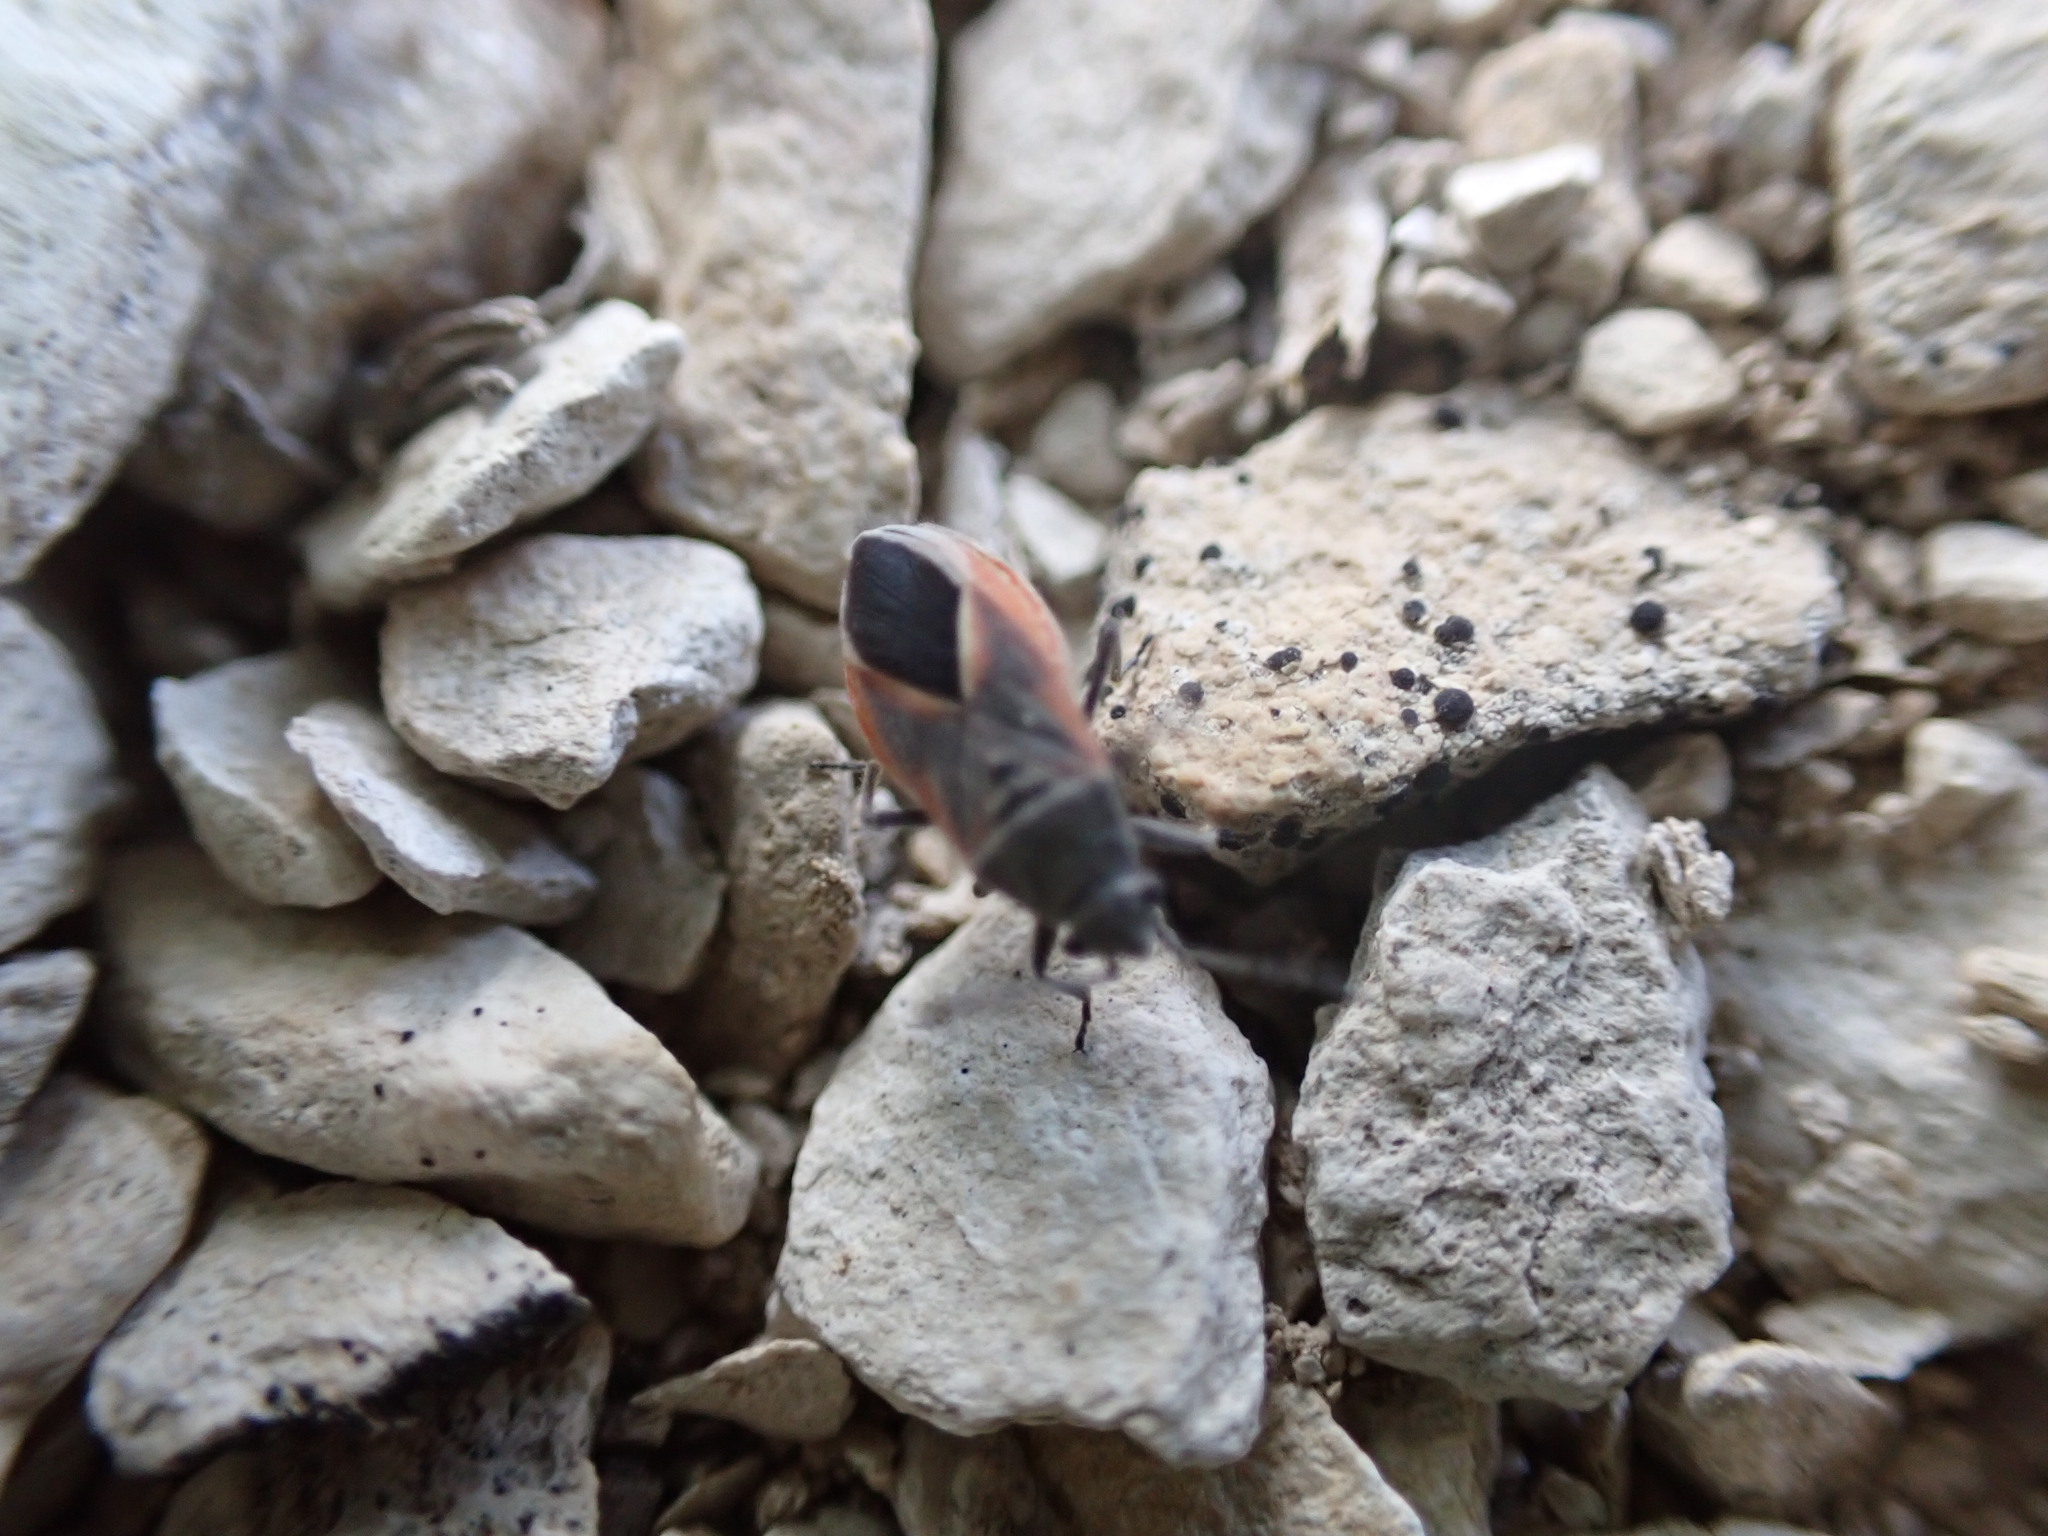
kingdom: Animalia
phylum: Arthropoda
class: Insecta
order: Hemiptera
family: Lygaeidae
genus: Melanopleurus
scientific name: Melanopleurus pyrrhopterus
